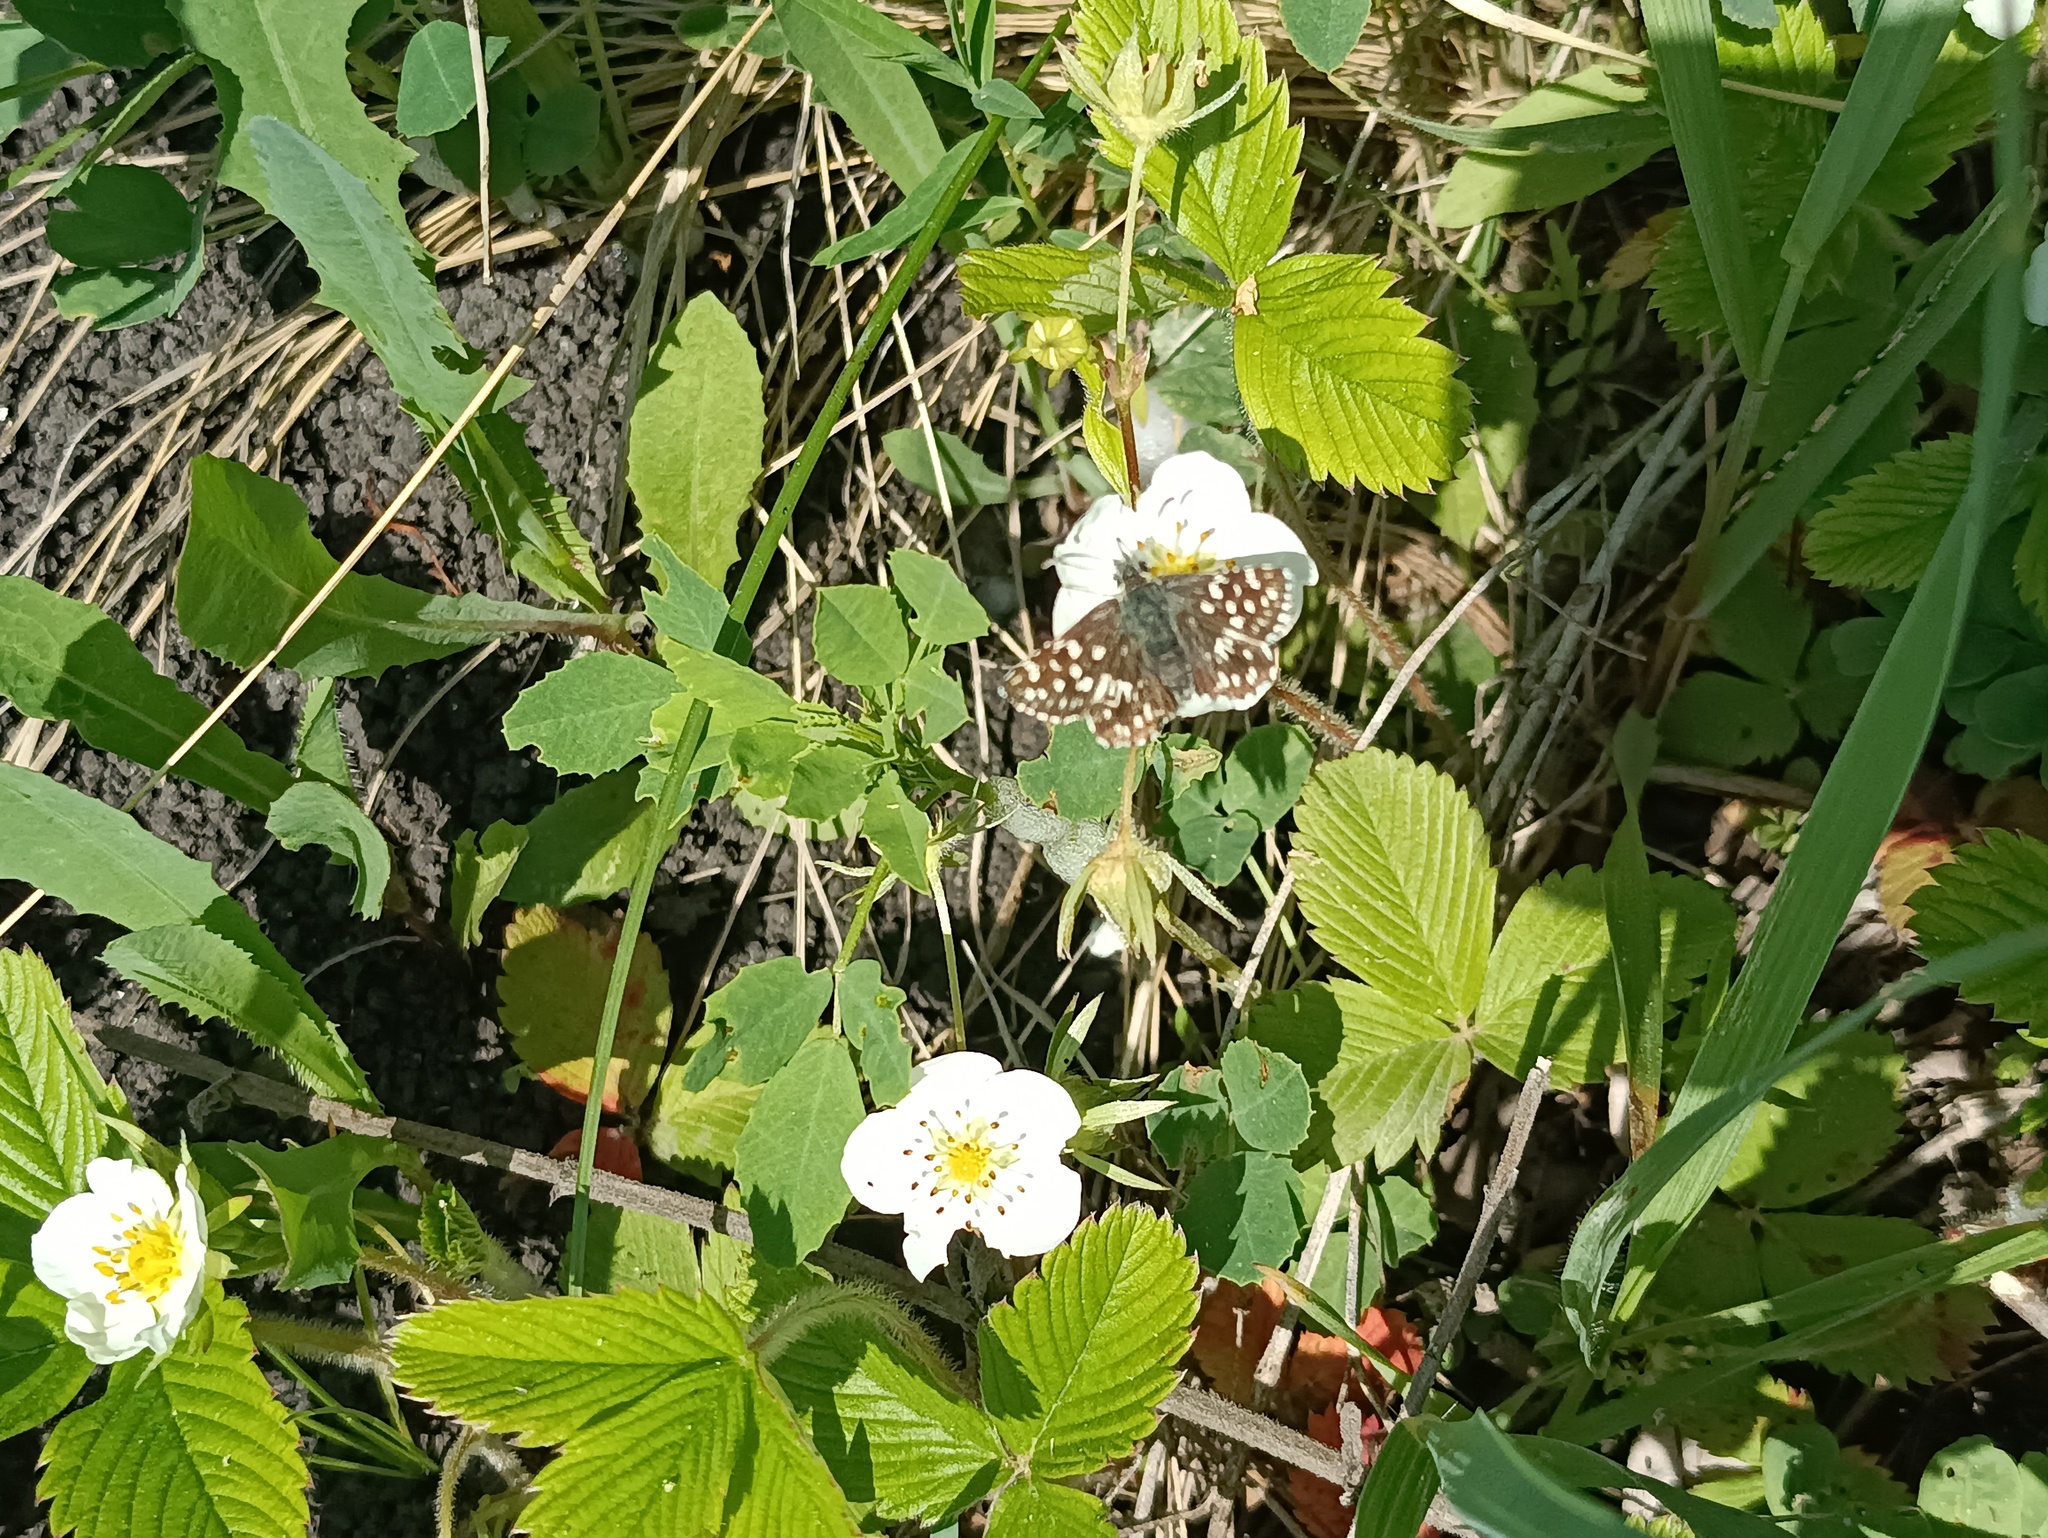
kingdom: Animalia
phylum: Arthropoda
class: Insecta
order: Lepidoptera
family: Hesperiidae
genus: Pyrgus
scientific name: Pyrgus malvae
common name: Grizzled skipper
